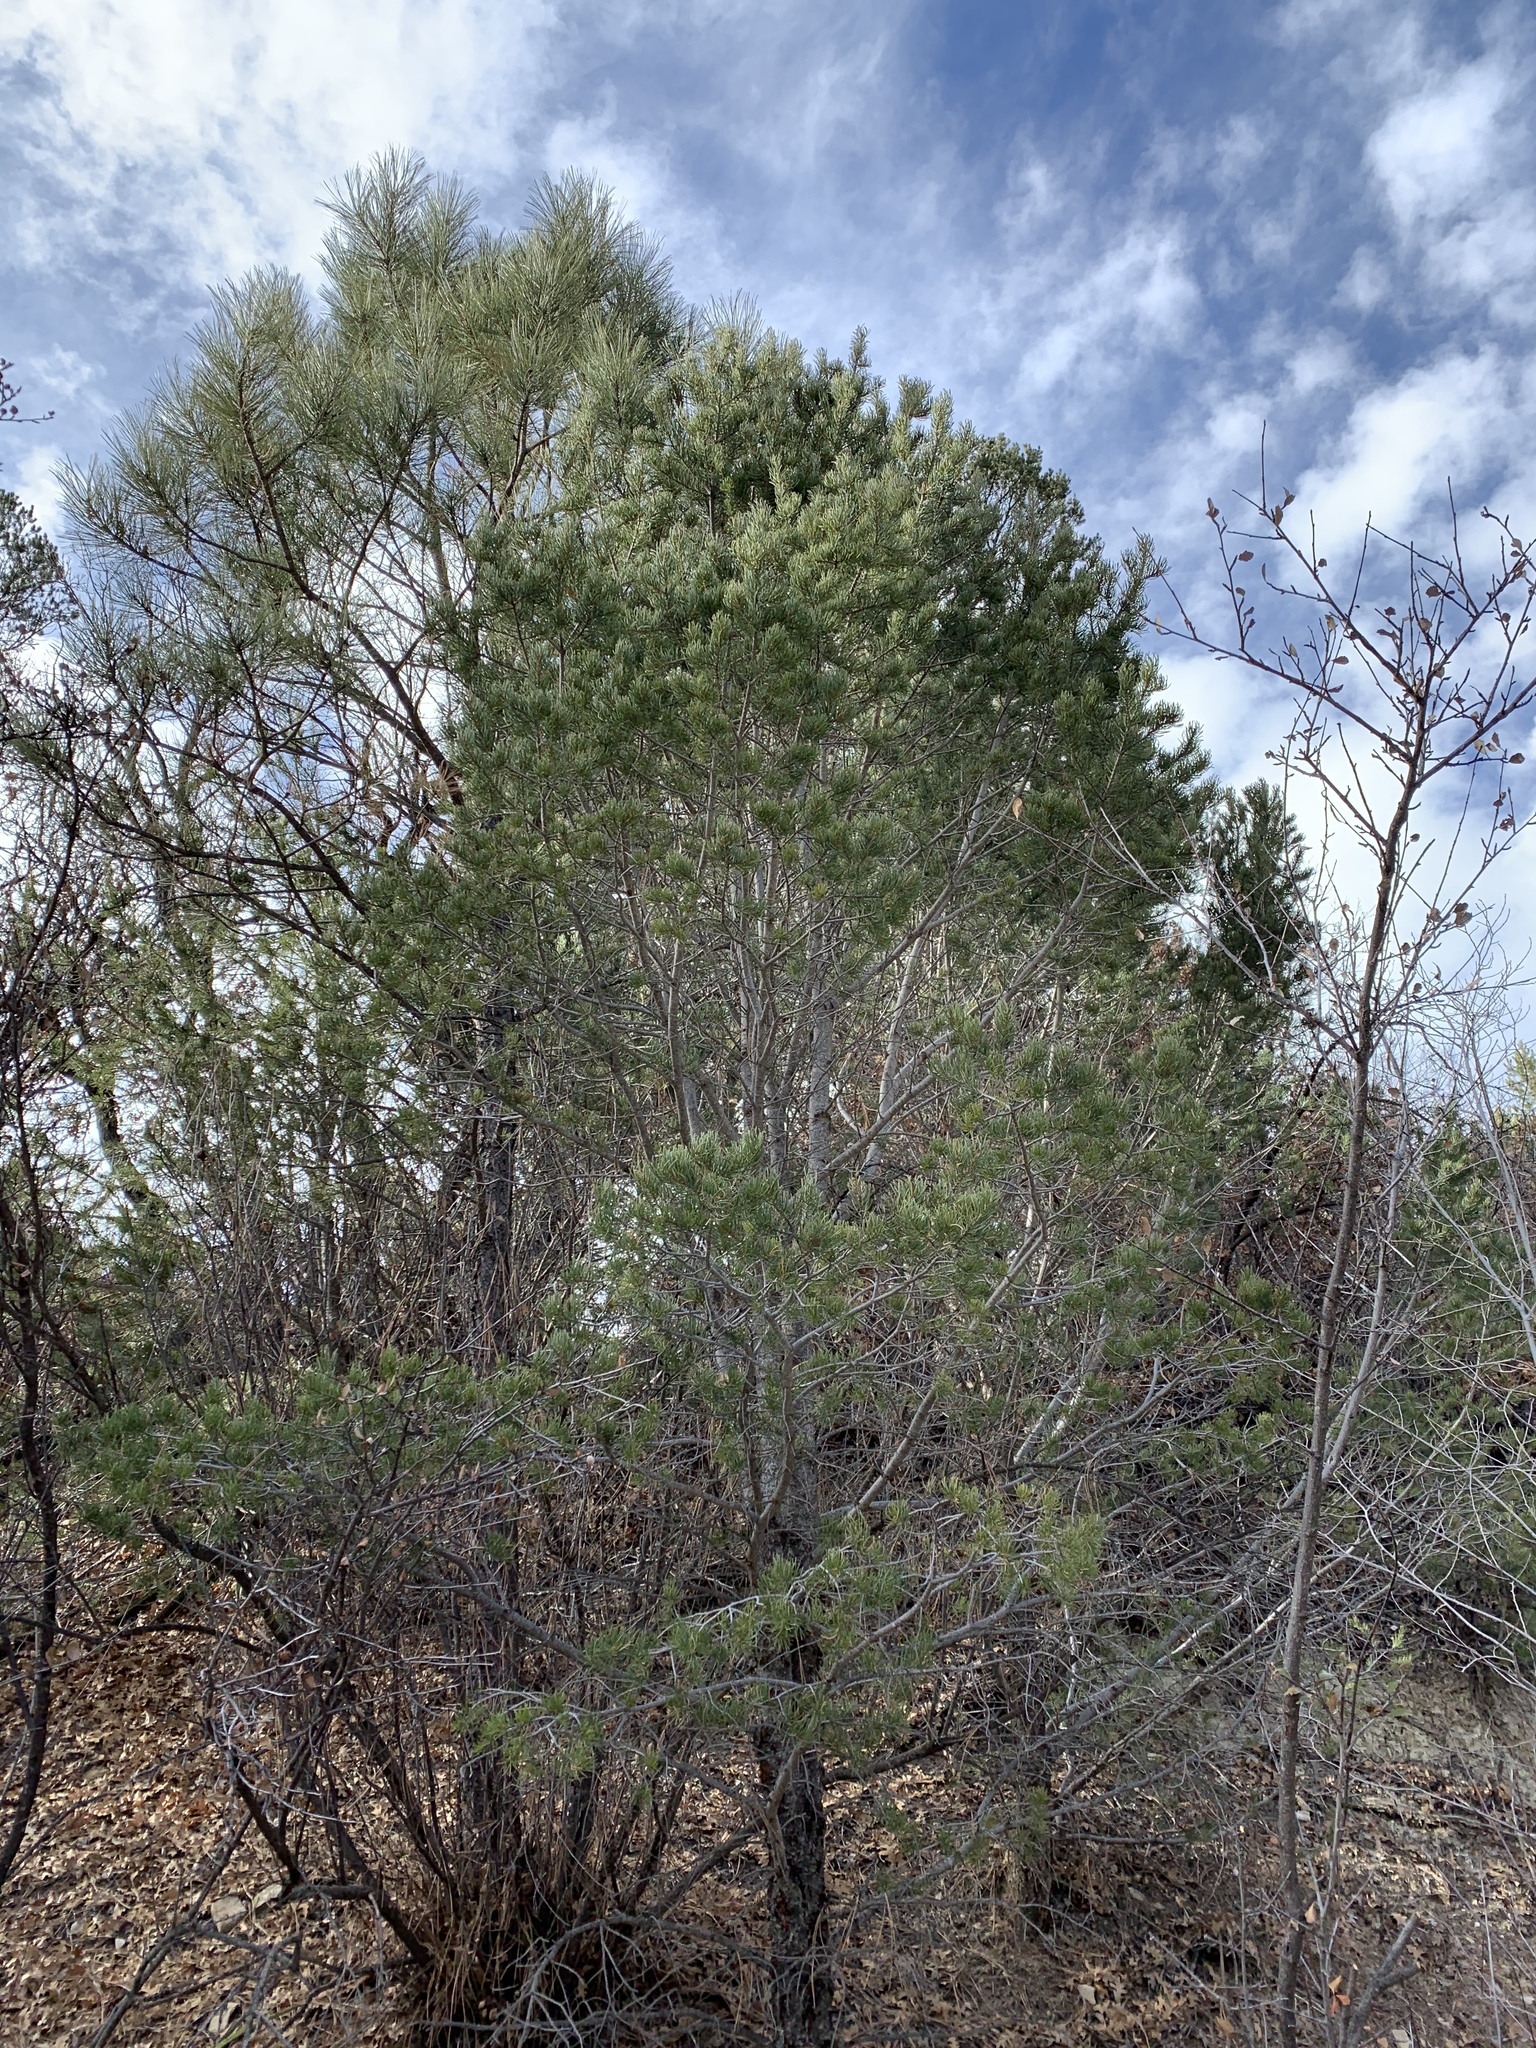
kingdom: Plantae
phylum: Tracheophyta
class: Pinopsida
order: Pinales
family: Pinaceae
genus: Pinus
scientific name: Pinus edulis
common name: Colorado pinyon
